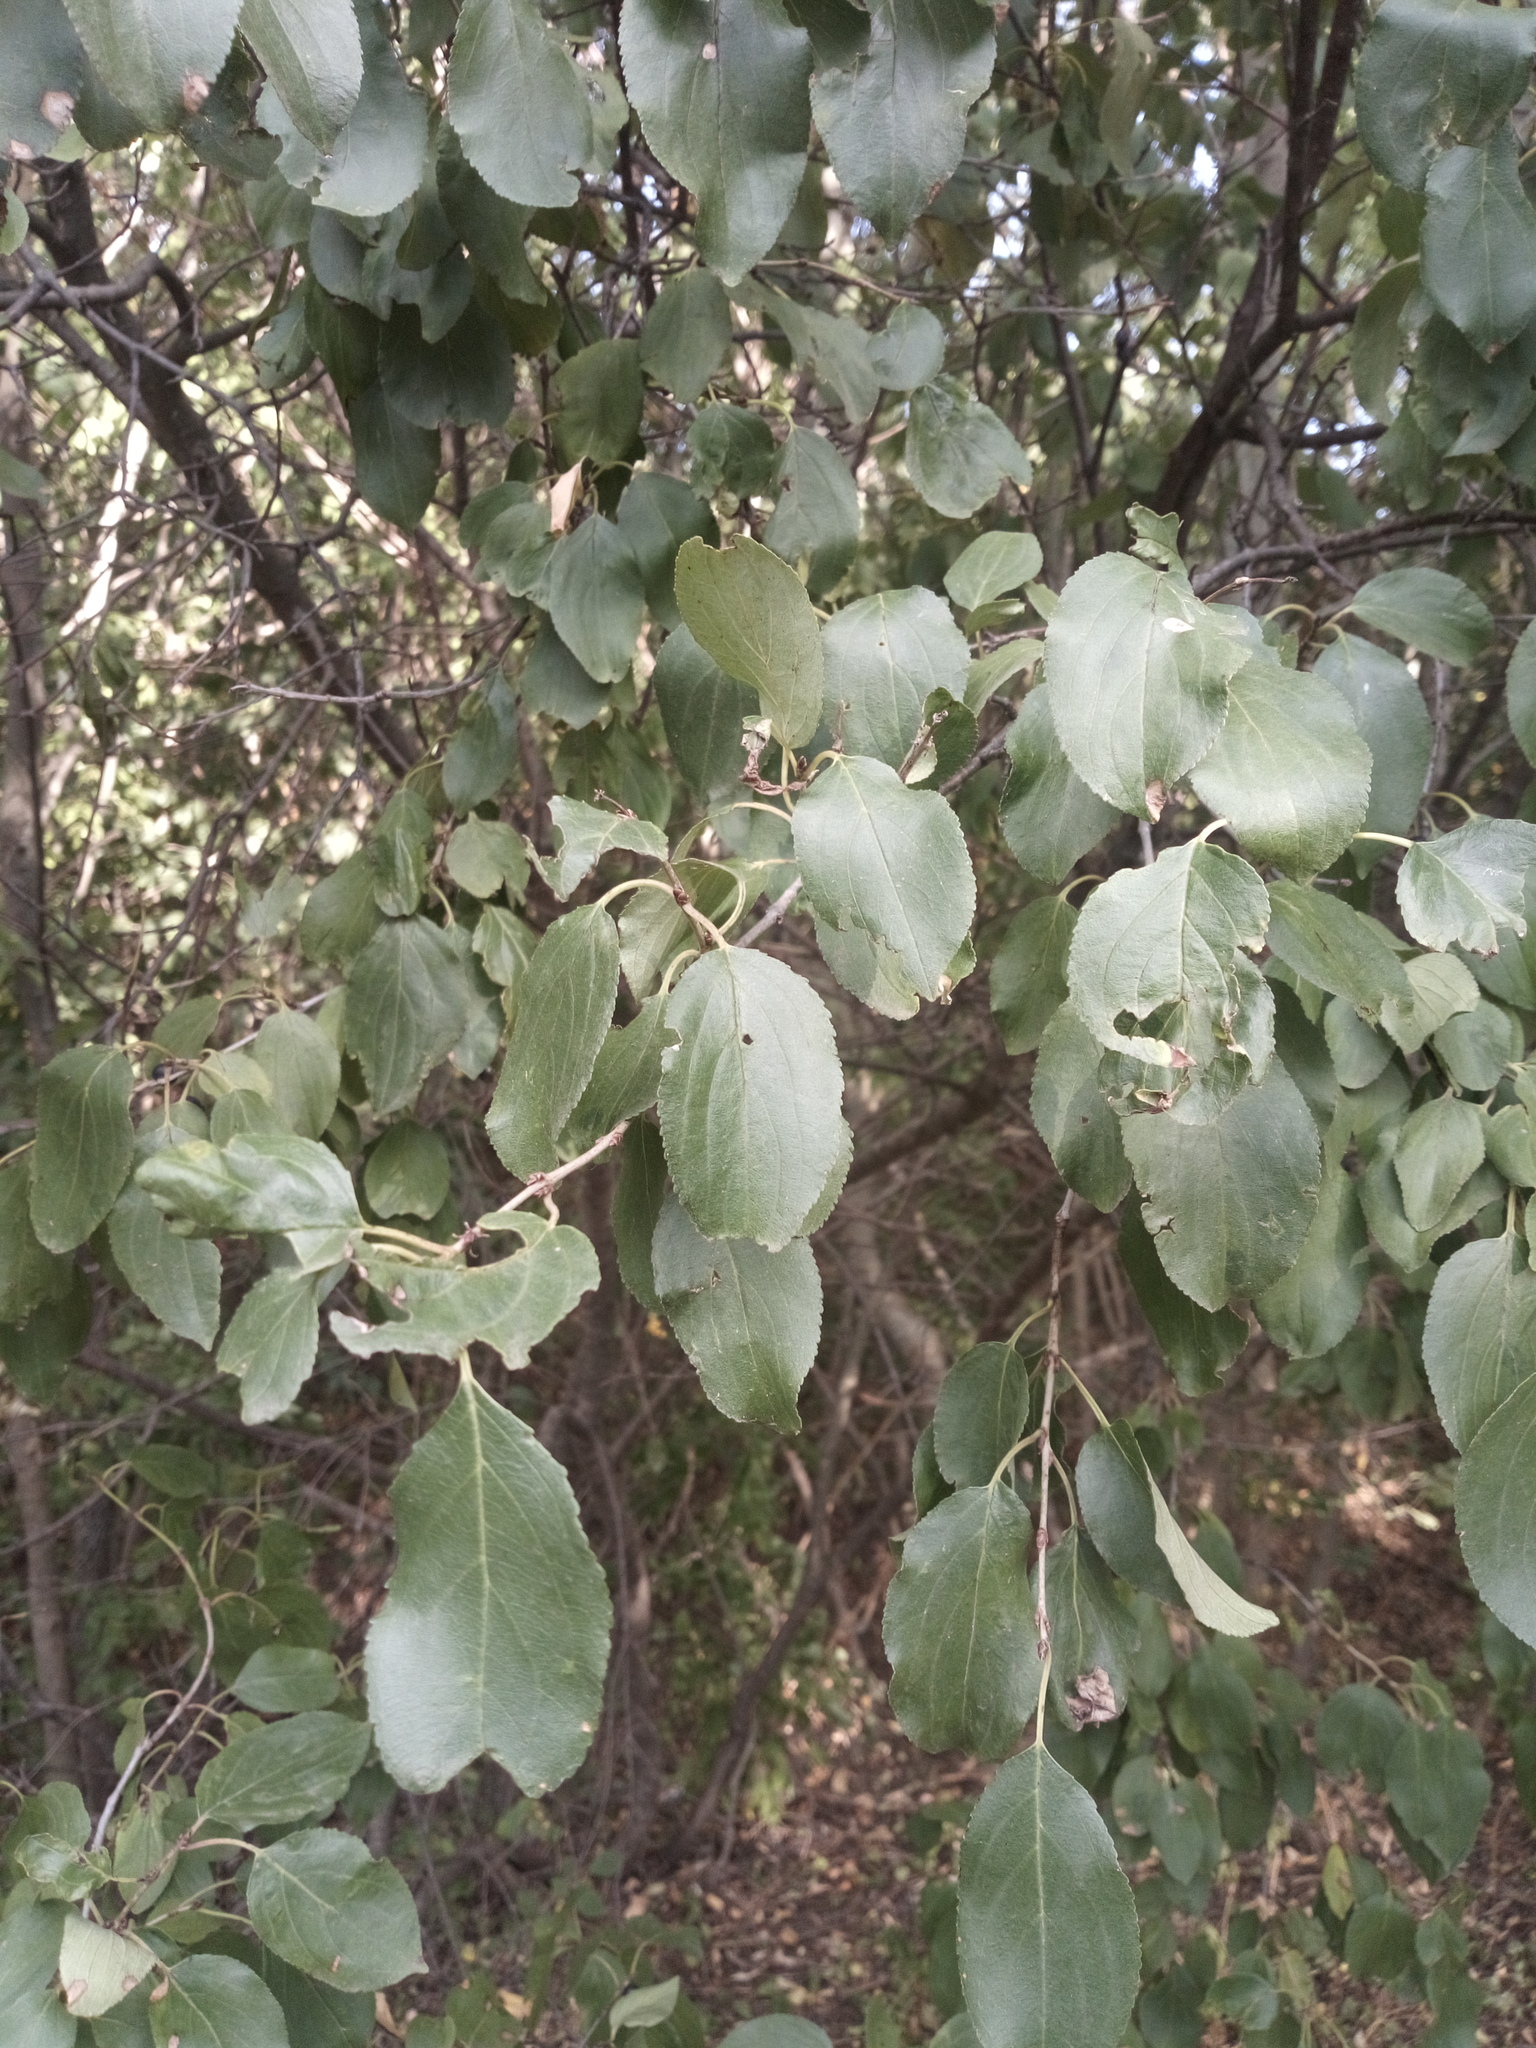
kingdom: Plantae
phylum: Tracheophyta
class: Magnoliopsida
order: Rosales
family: Rhamnaceae
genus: Rhamnus
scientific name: Rhamnus cathartica
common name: Common buckthorn
